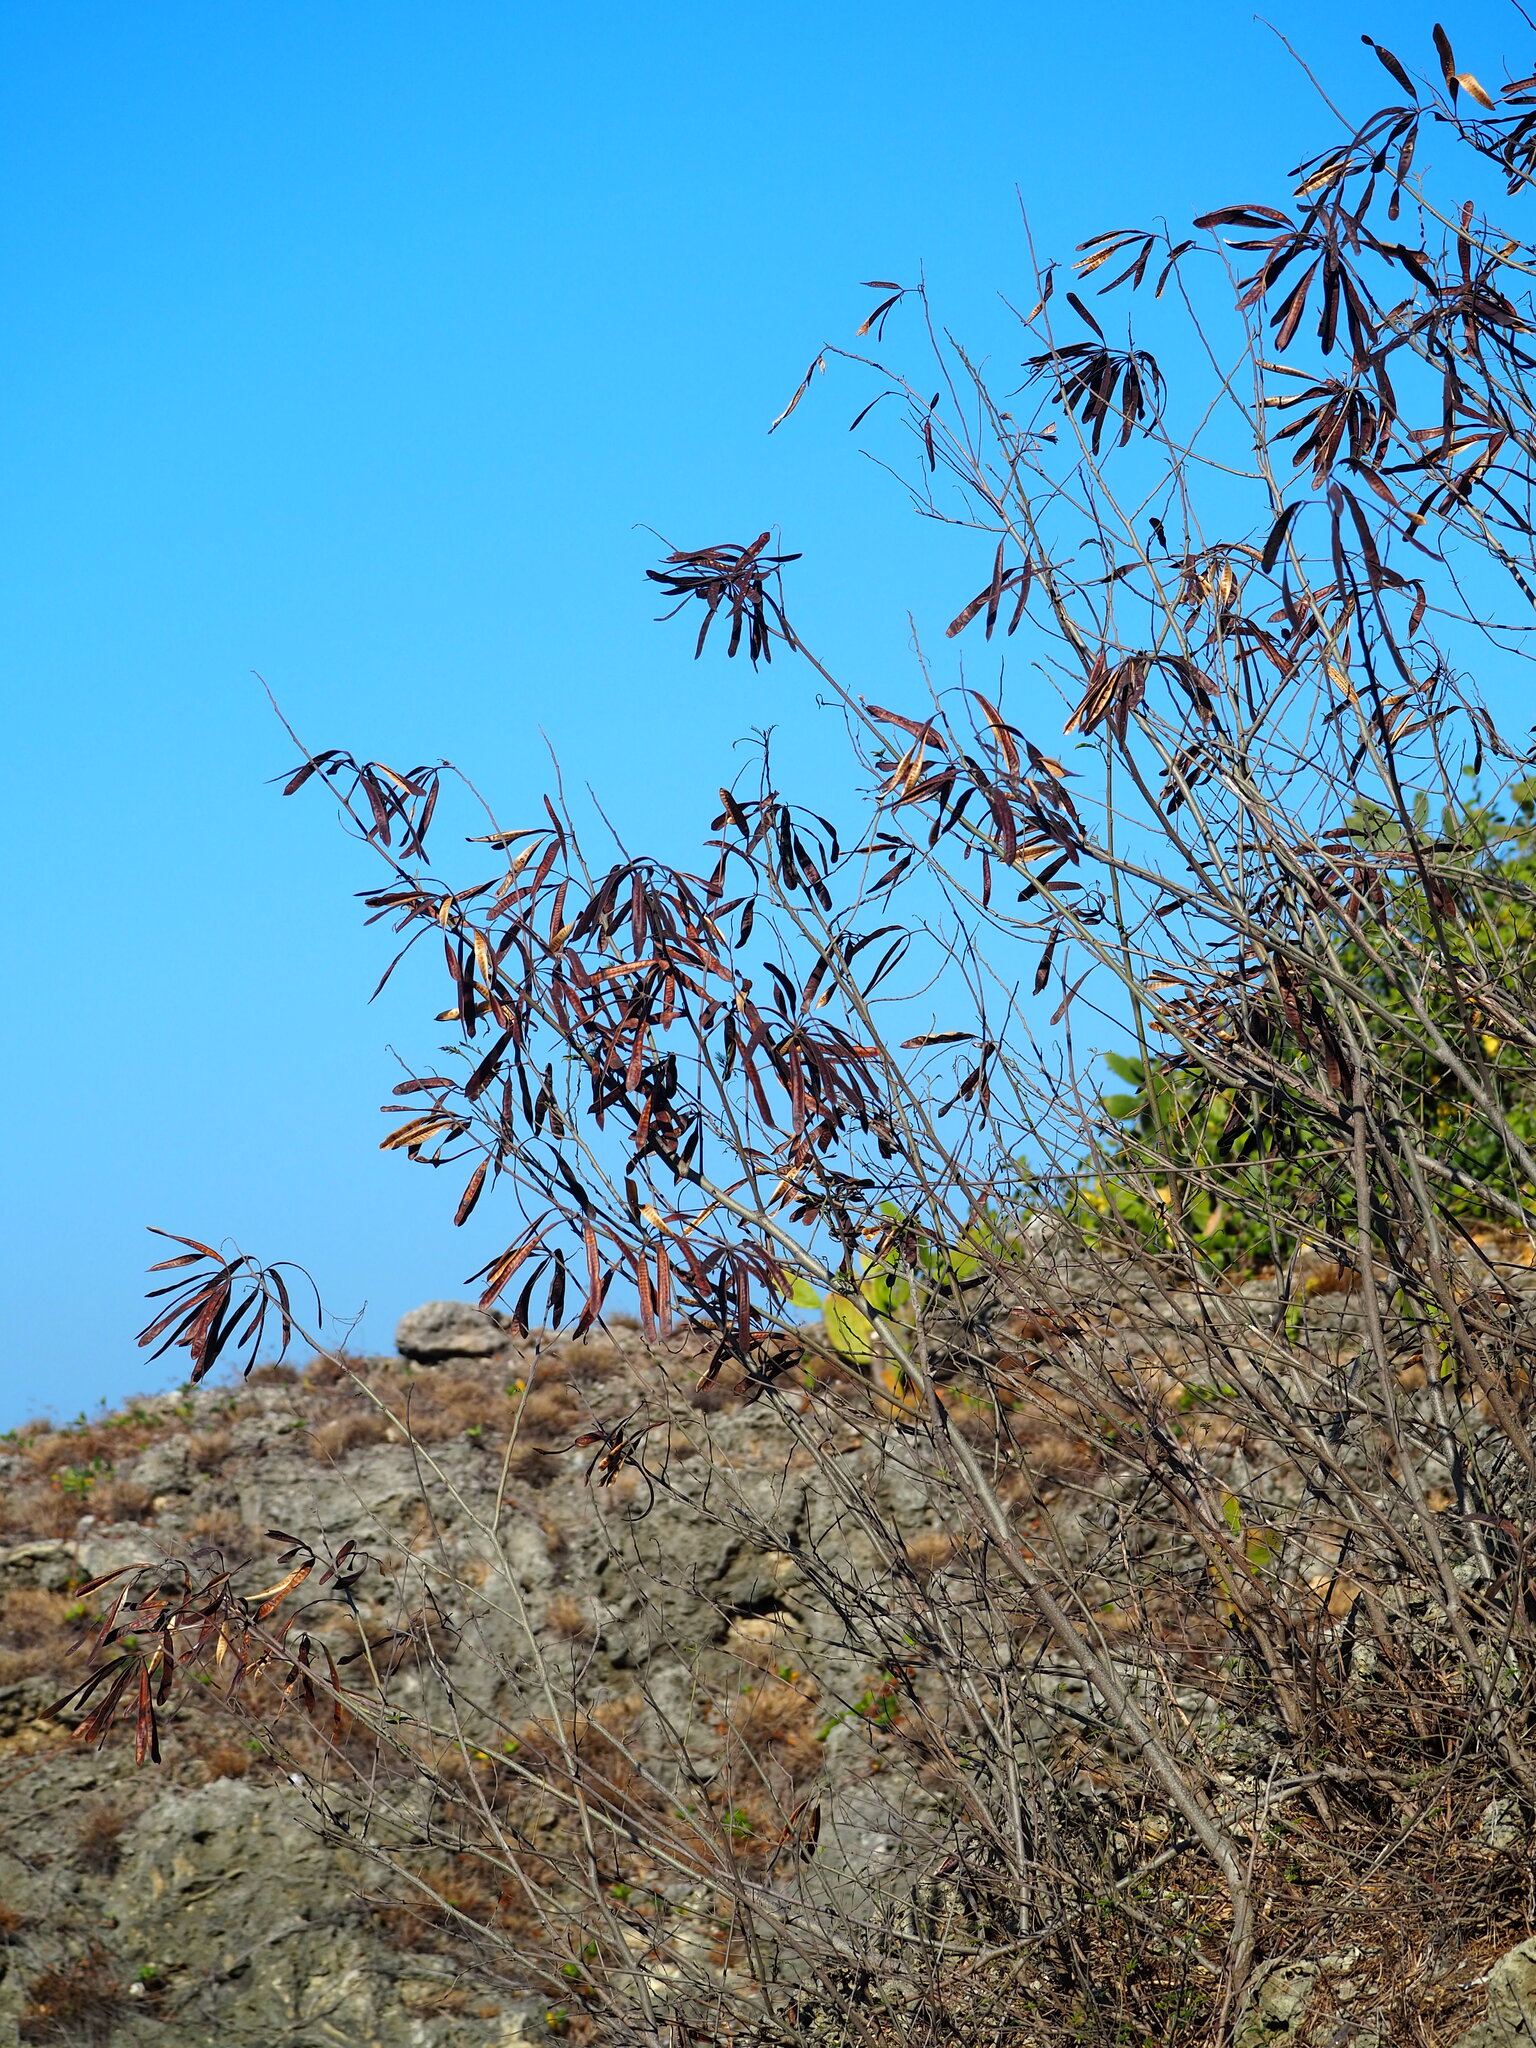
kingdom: Plantae
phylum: Tracheophyta
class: Magnoliopsida
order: Fabales
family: Fabaceae
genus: Leucaena
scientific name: Leucaena leucocephala
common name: White leadtree
